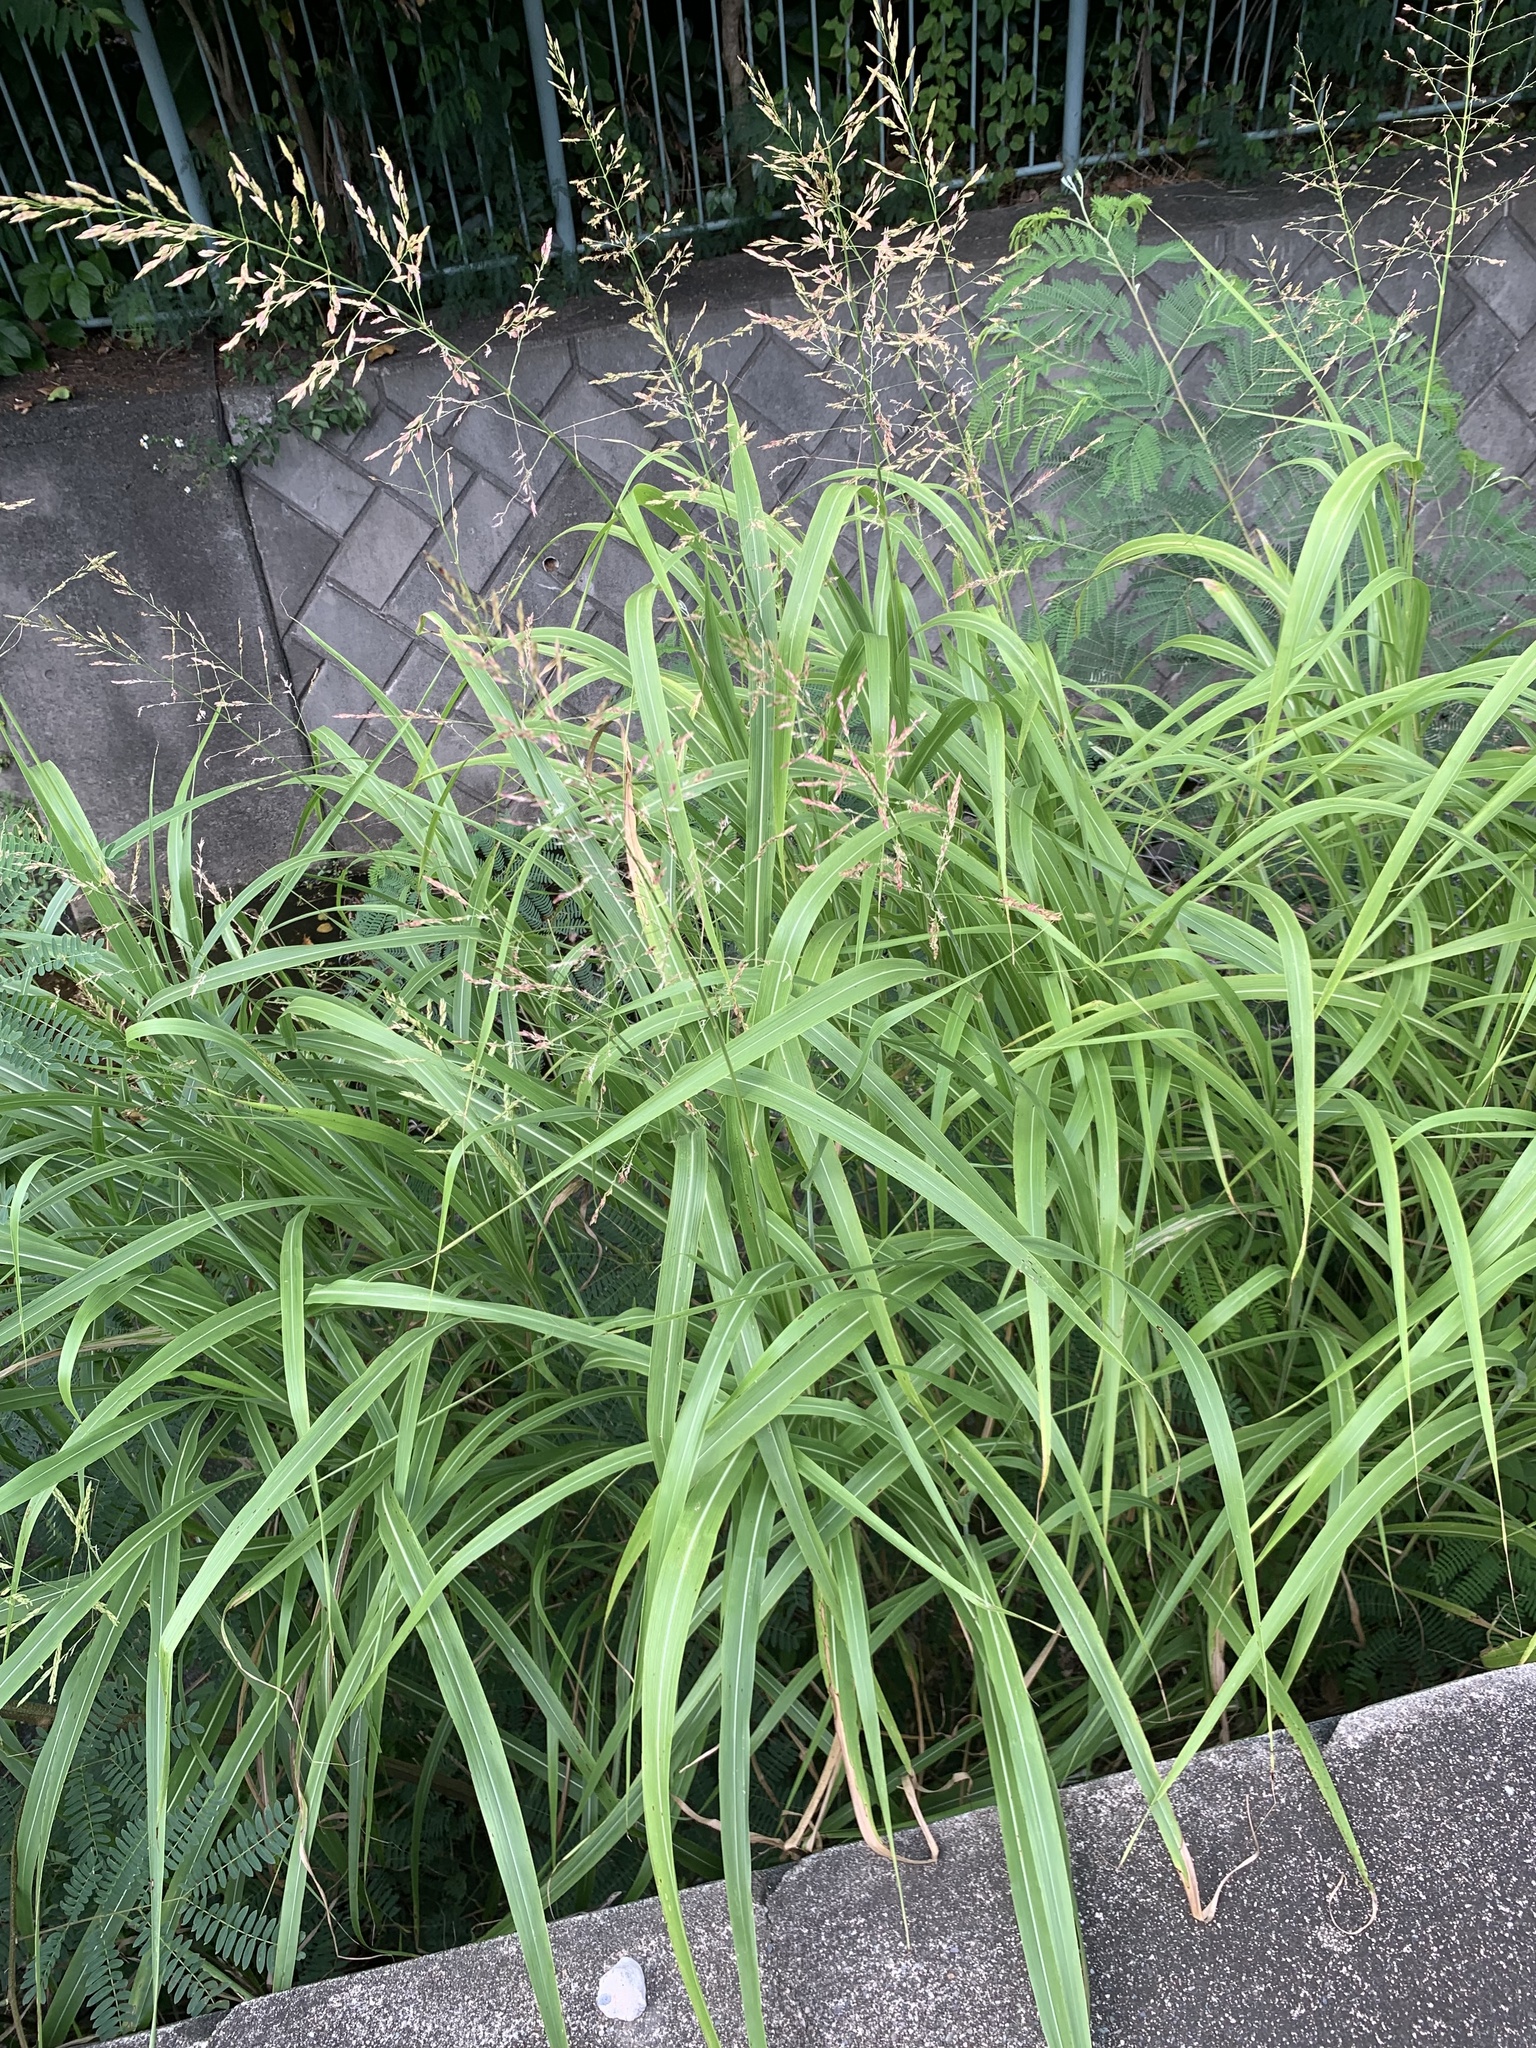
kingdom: Plantae
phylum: Tracheophyta
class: Liliopsida
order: Poales
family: Poaceae
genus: Sorghum
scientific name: Sorghum halepense
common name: Johnson-grass
